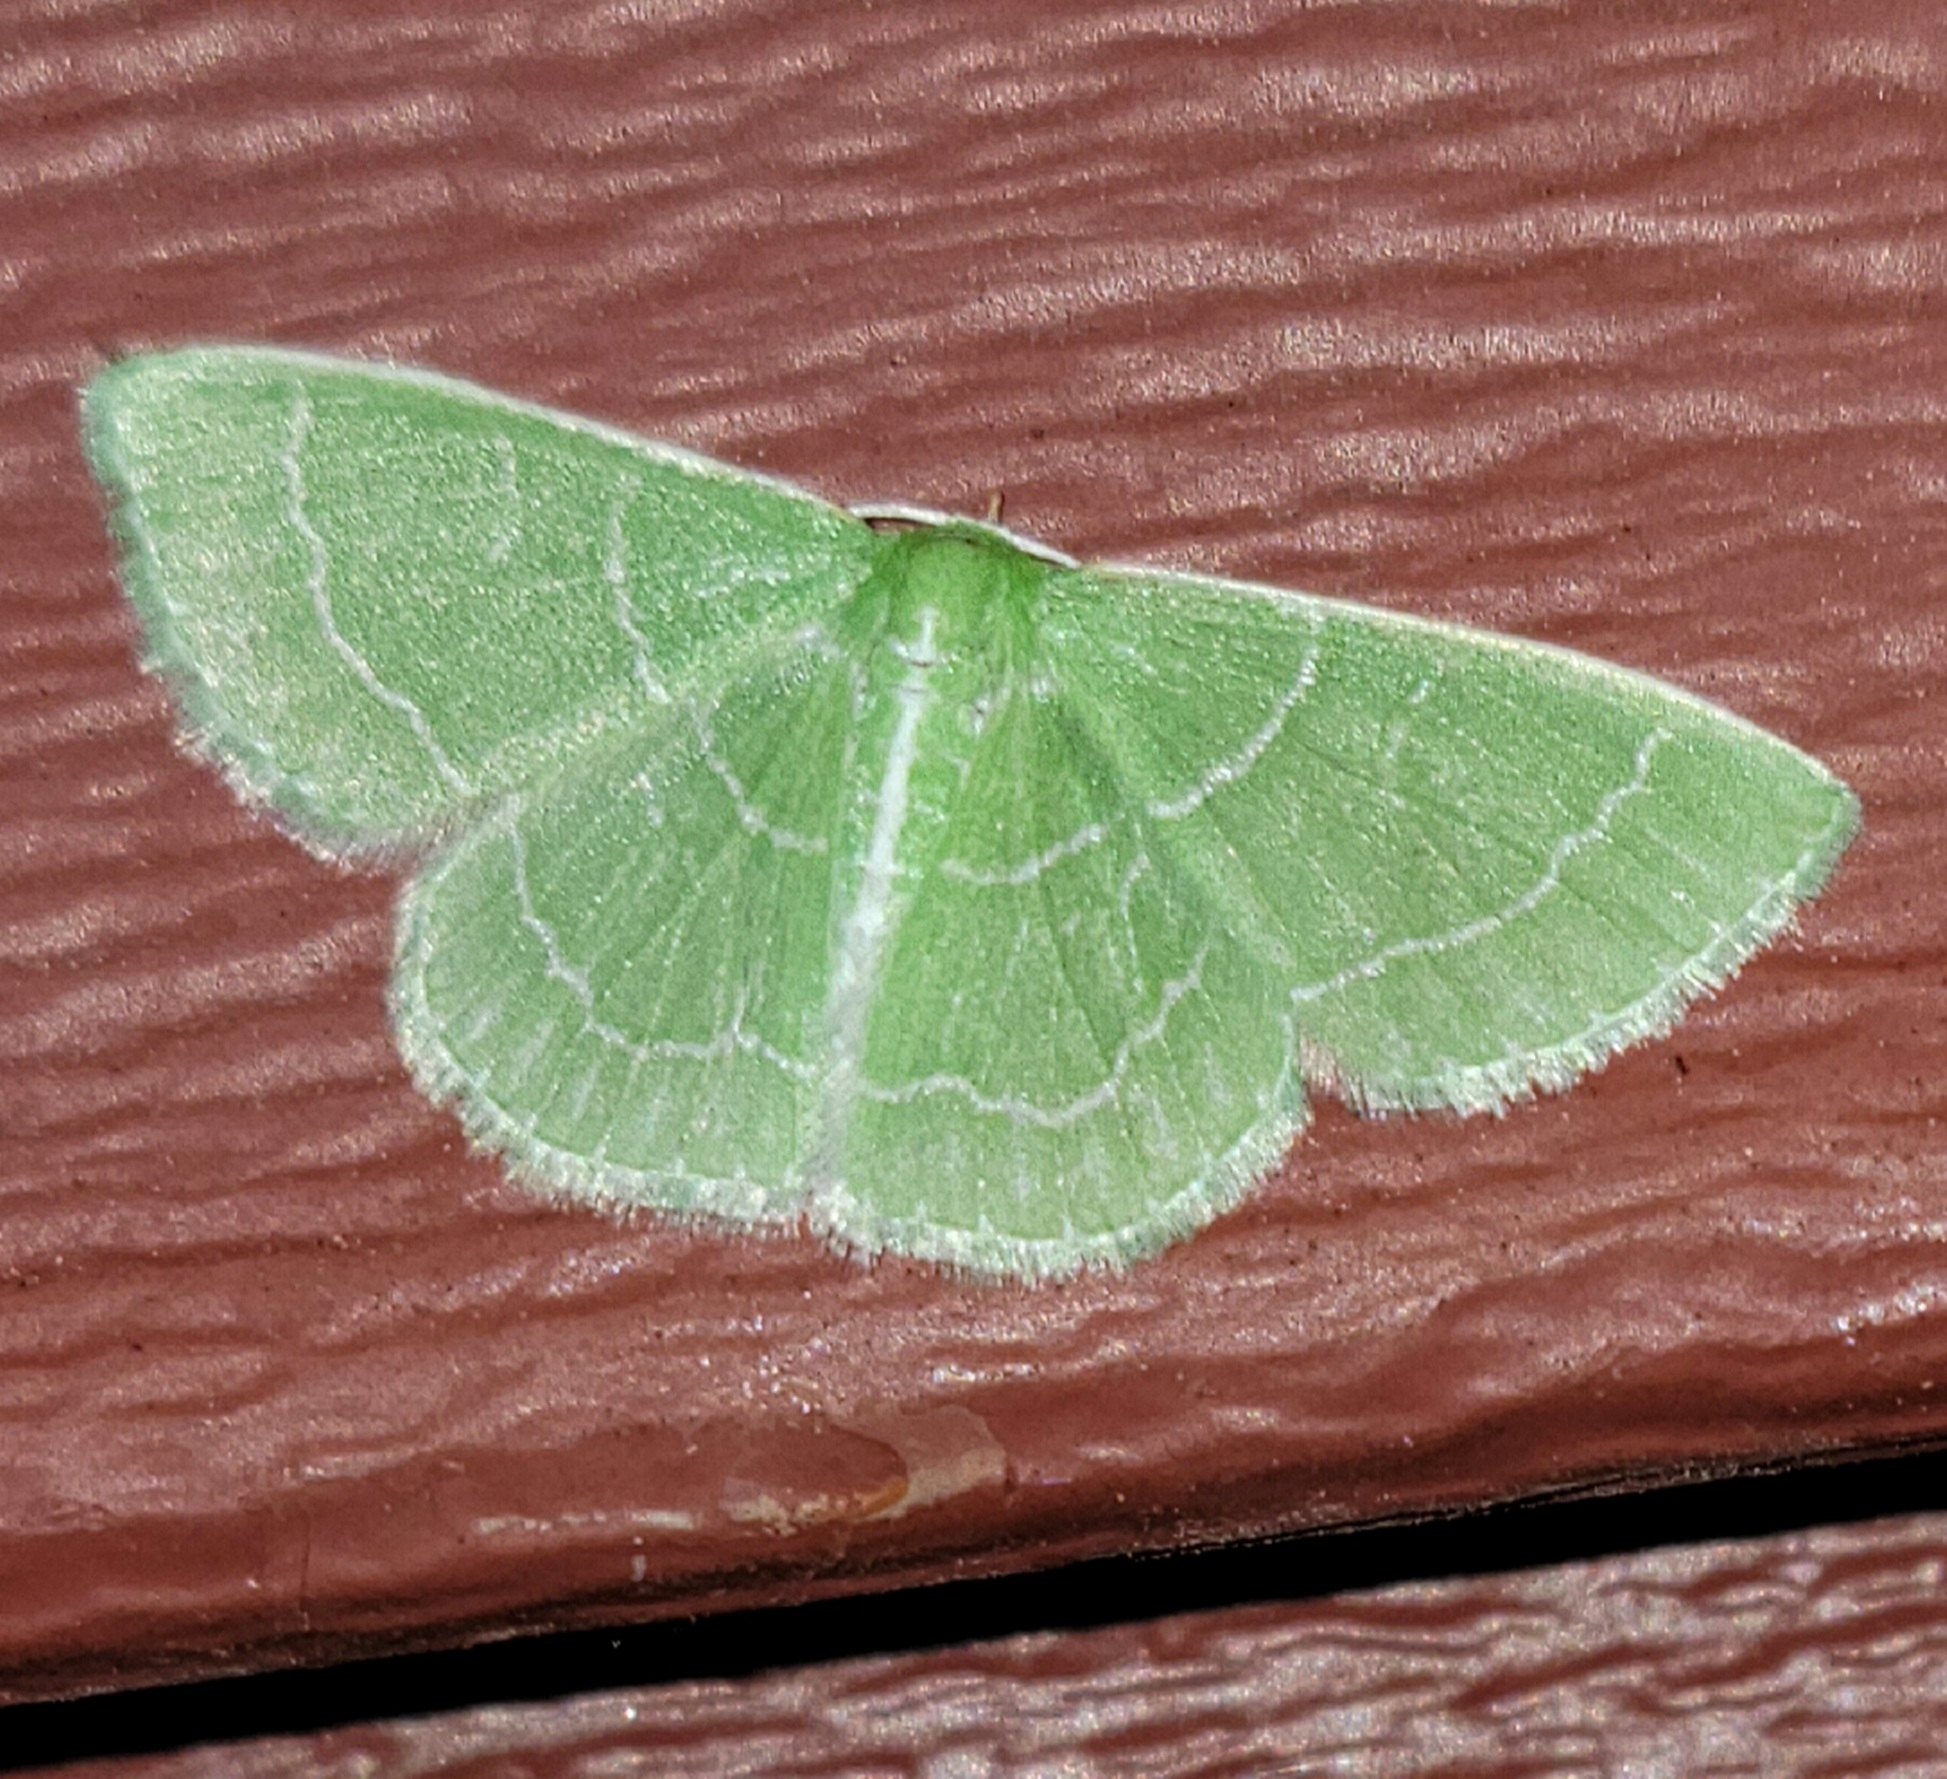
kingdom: Animalia
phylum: Arthropoda
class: Insecta
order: Lepidoptera
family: Geometridae
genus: Synchlora
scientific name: Synchlora aerata
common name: Wavy-lined emerald
